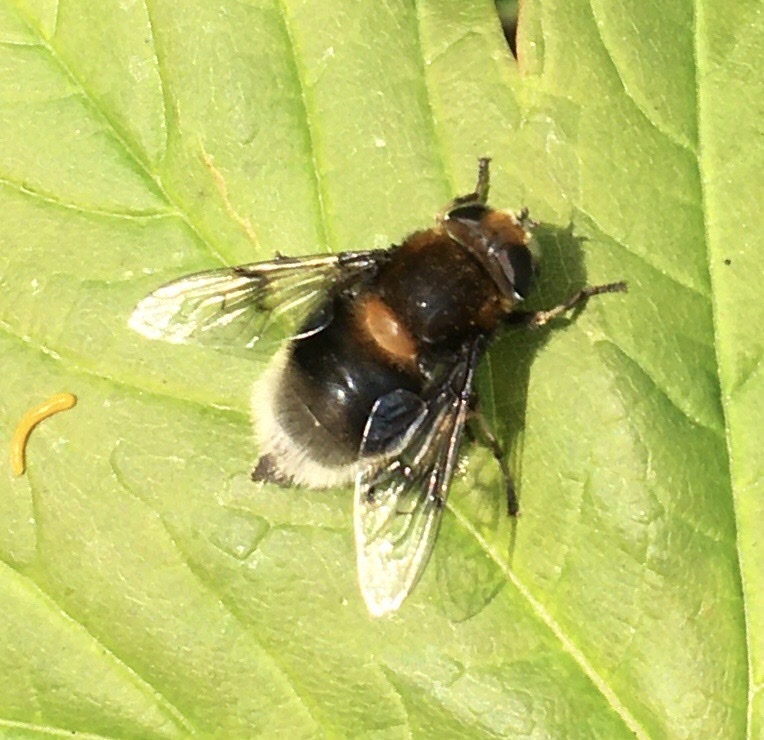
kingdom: Animalia
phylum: Arthropoda
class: Insecta
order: Diptera
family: Syrphidae
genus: Eristalis
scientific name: Eristalis intricaria
